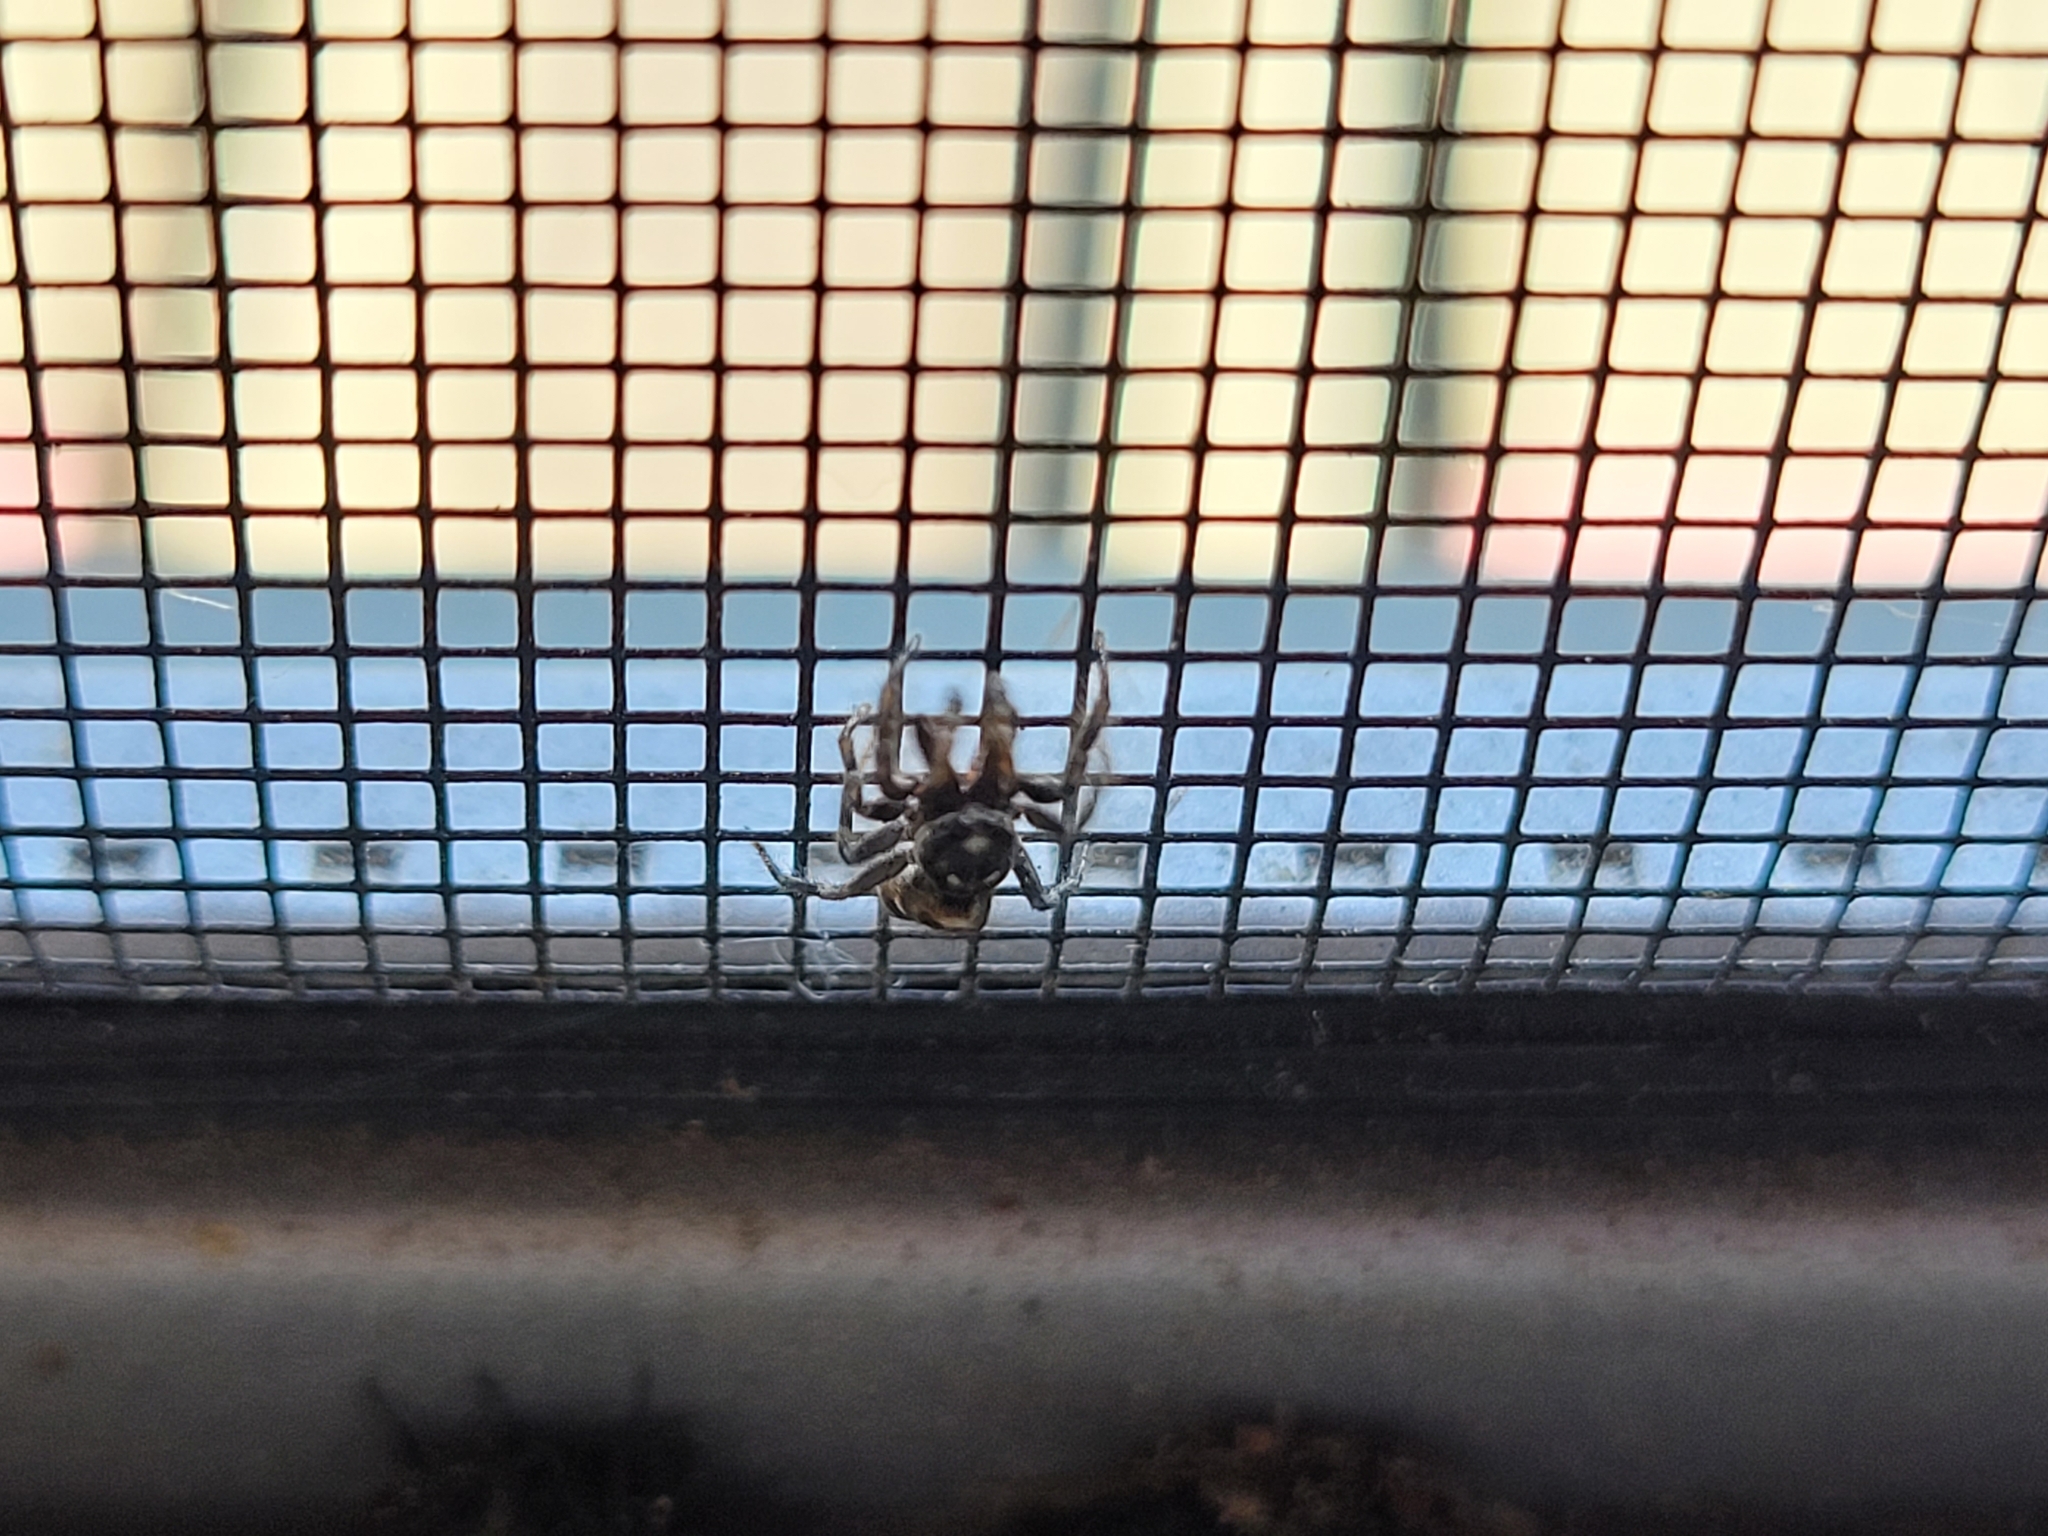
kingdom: Animalia
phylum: Arthropoda
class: Arachnida
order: Araneae
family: Salticidae
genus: Salticus
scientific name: Salticus scenicus
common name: Zebra jumper
